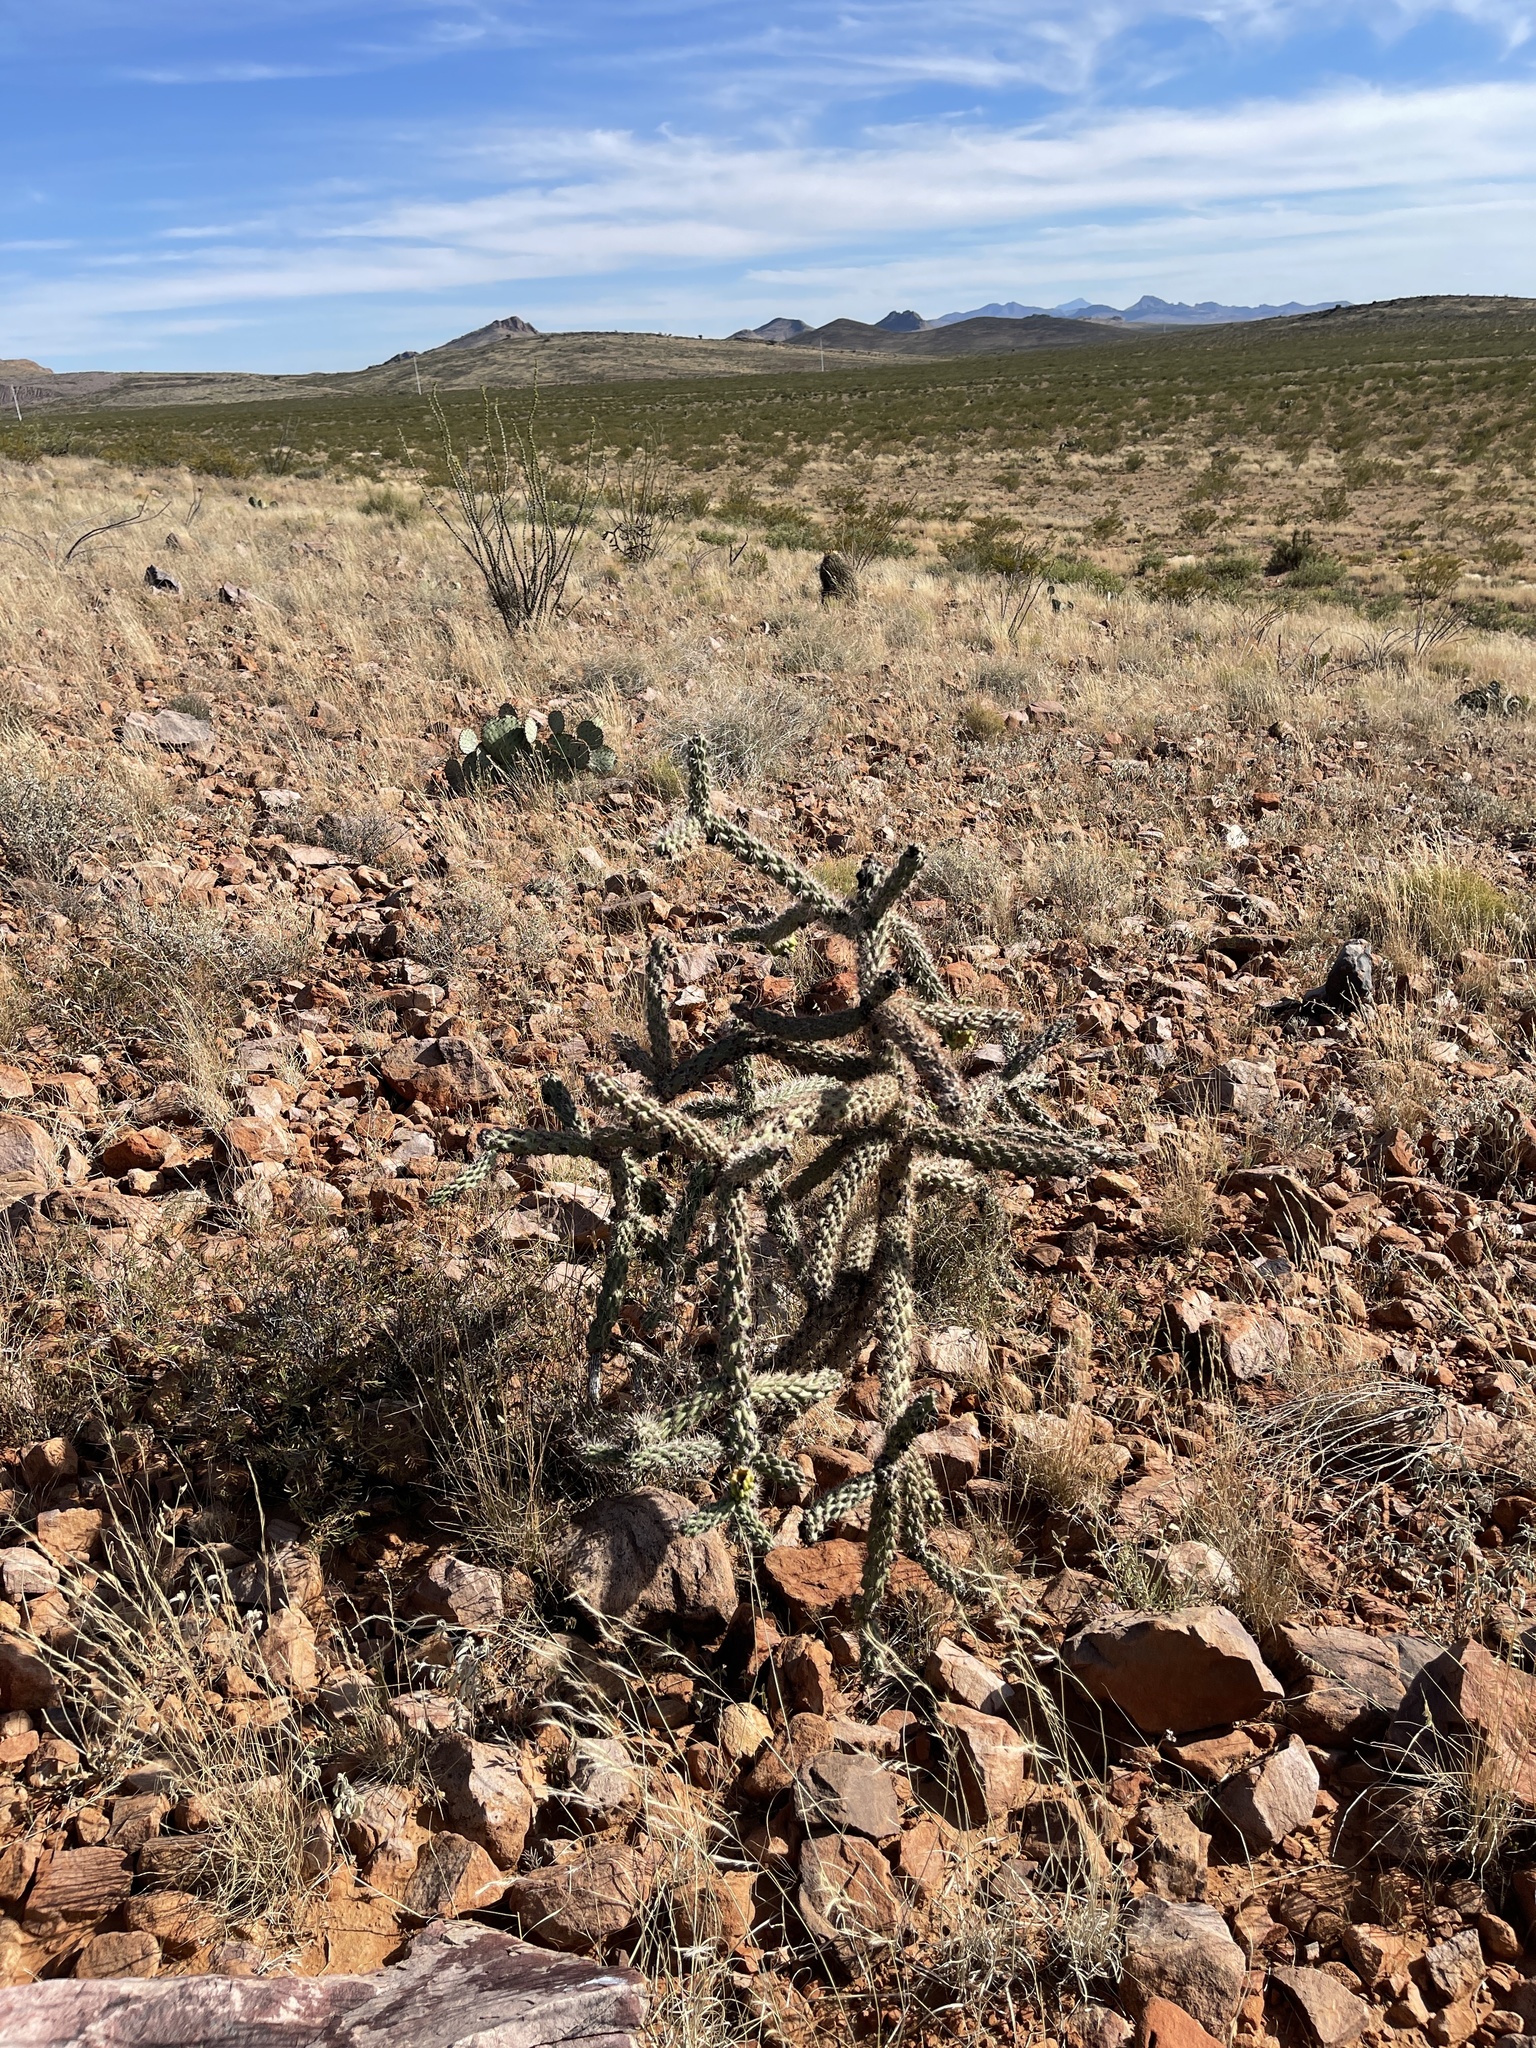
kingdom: Plantae
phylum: Tracheophyta
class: Magnoliopsida
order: Caryophyllales
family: Cactaceae
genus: Cylindropuntia
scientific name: Cylindropuntia imbricata
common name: Candelabrum cactus
